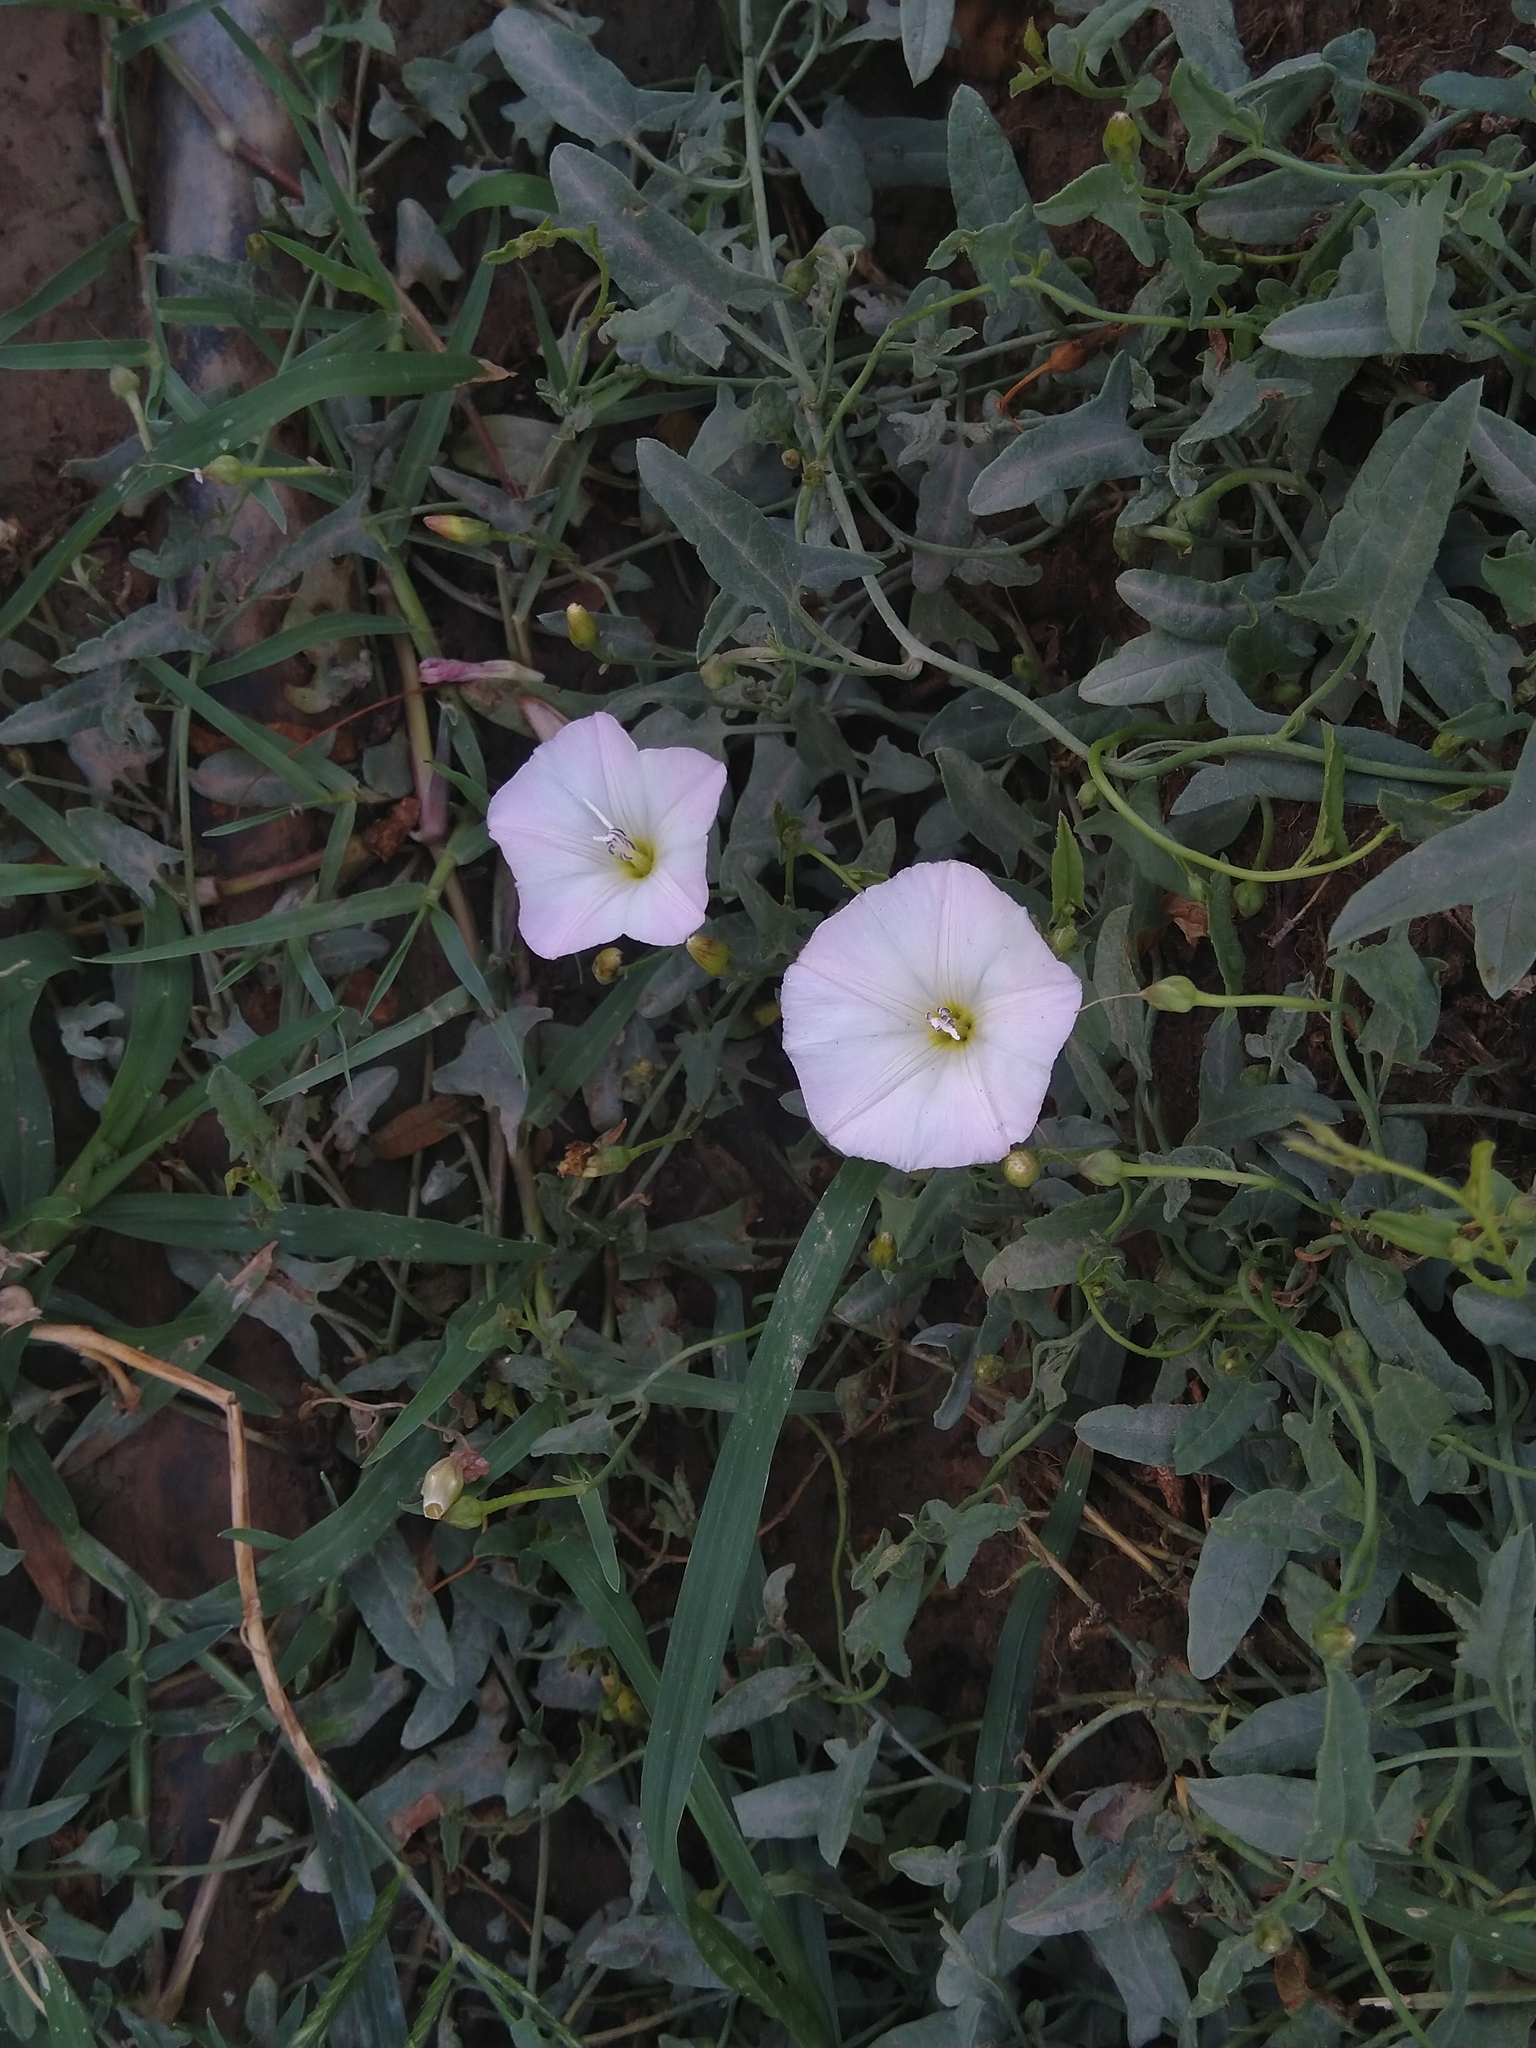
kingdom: Plantae
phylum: Tracheophyta
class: Magnoliopsida
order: Solanales
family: Convolvulaceae
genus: Convolvulus
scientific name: Convolvulus arvensis
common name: Field bindweed
